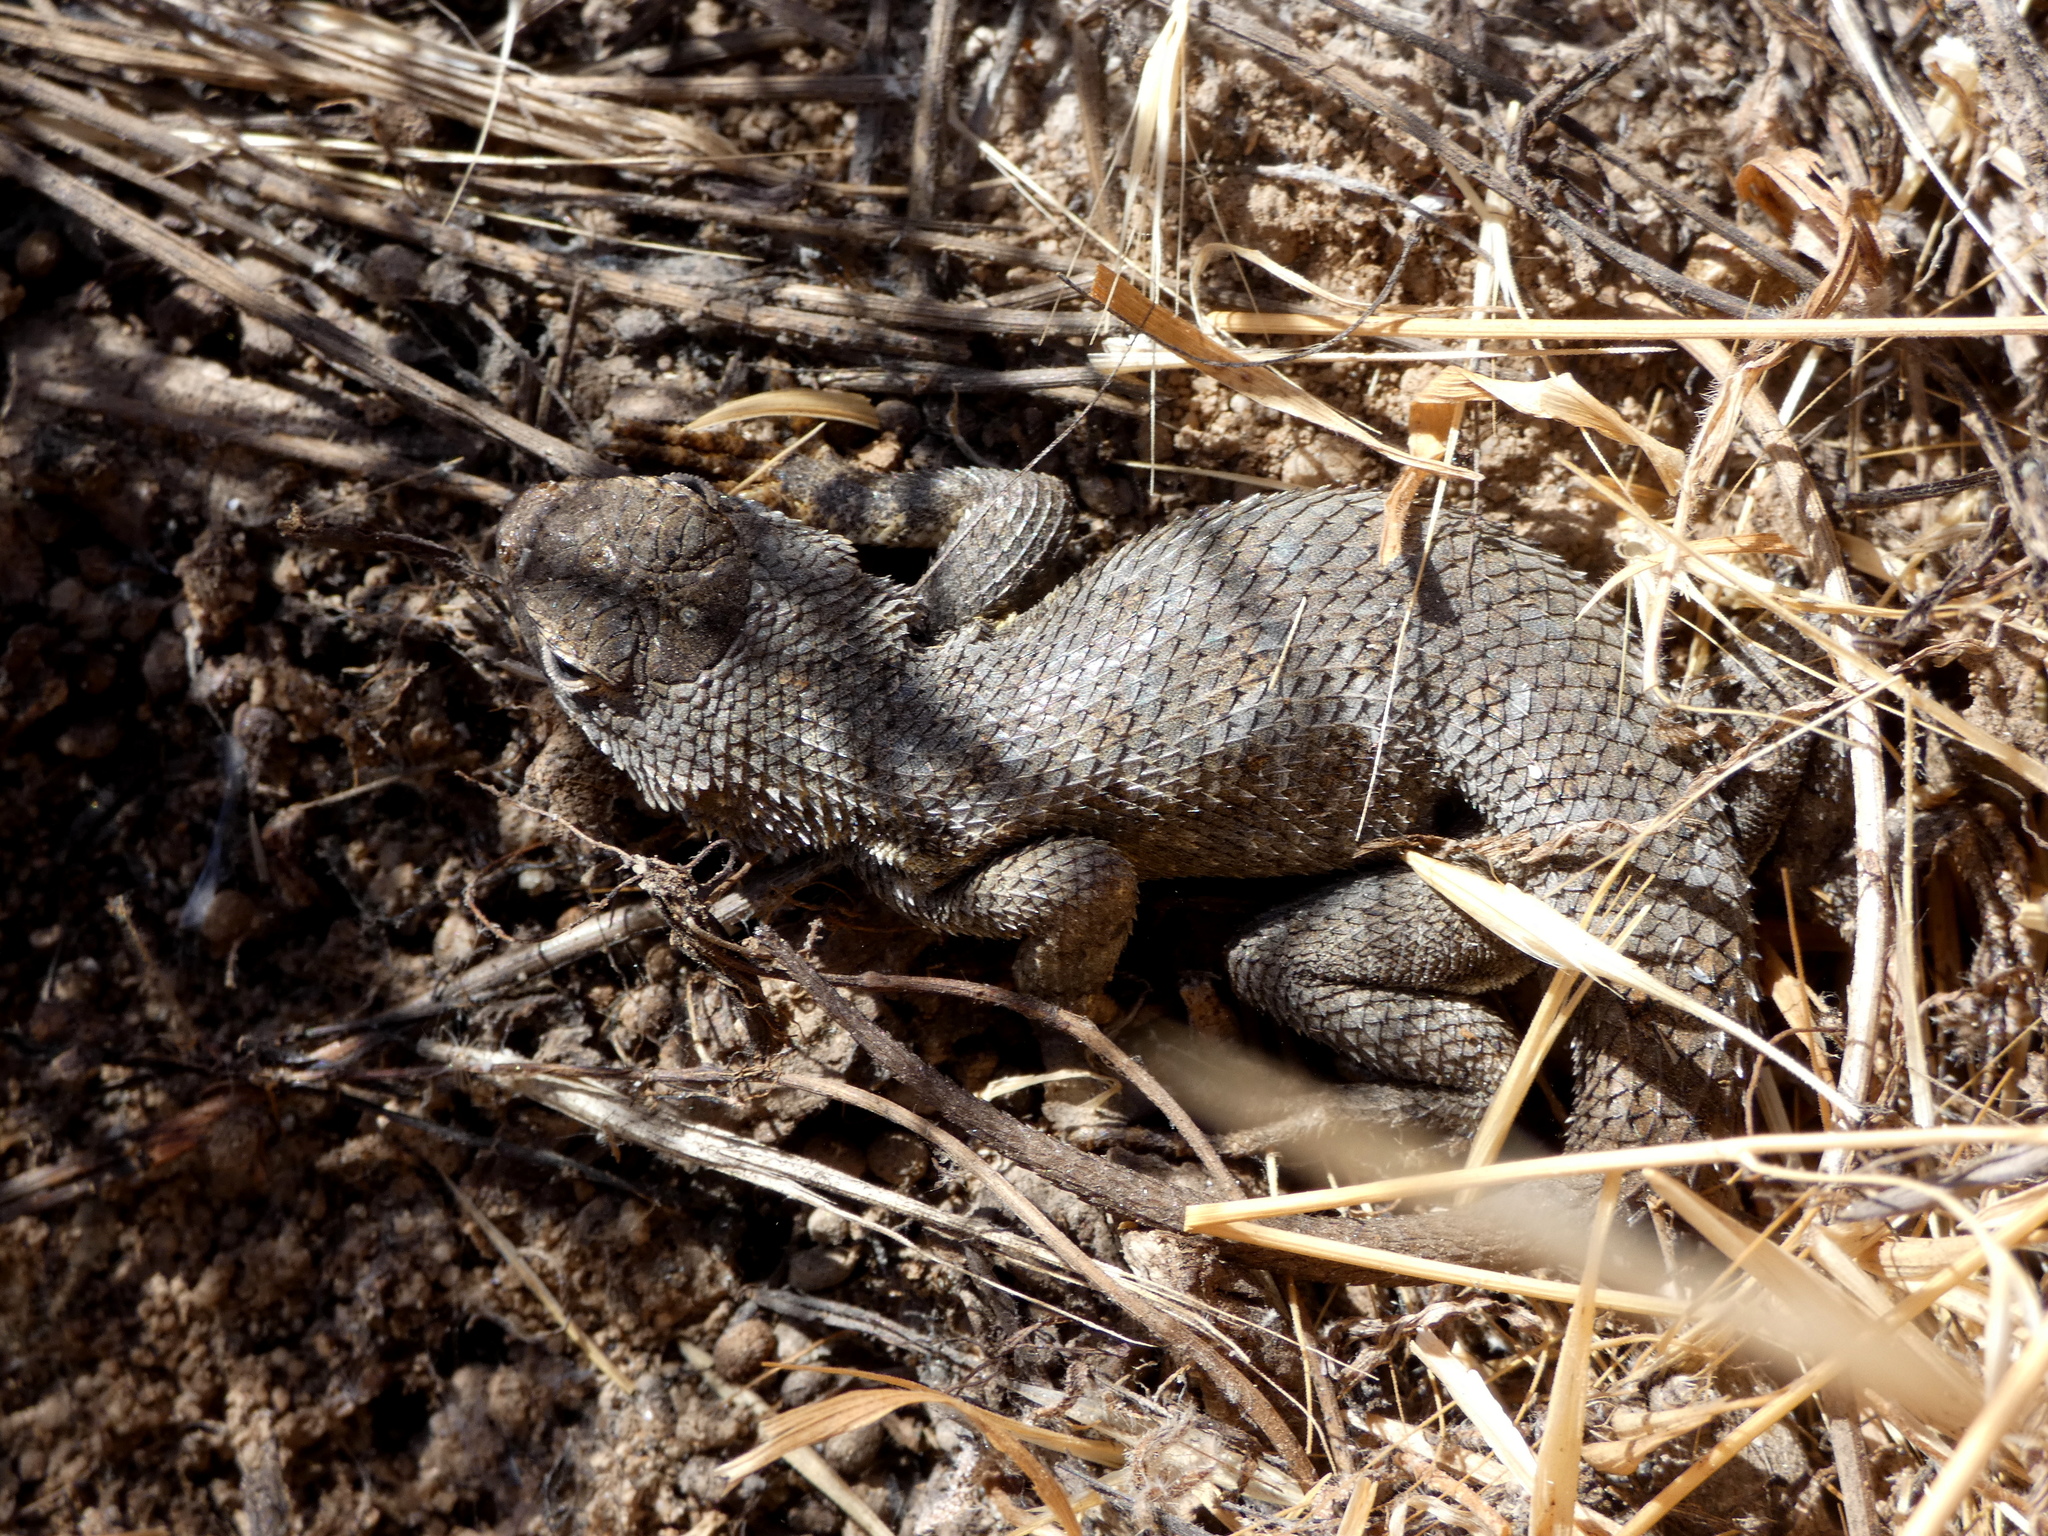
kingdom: Animalia
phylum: Chordata
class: Squamata
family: Phrynosomatidae
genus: Sceloporus
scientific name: Sceloporus occidentalis
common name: Western fence lizard
